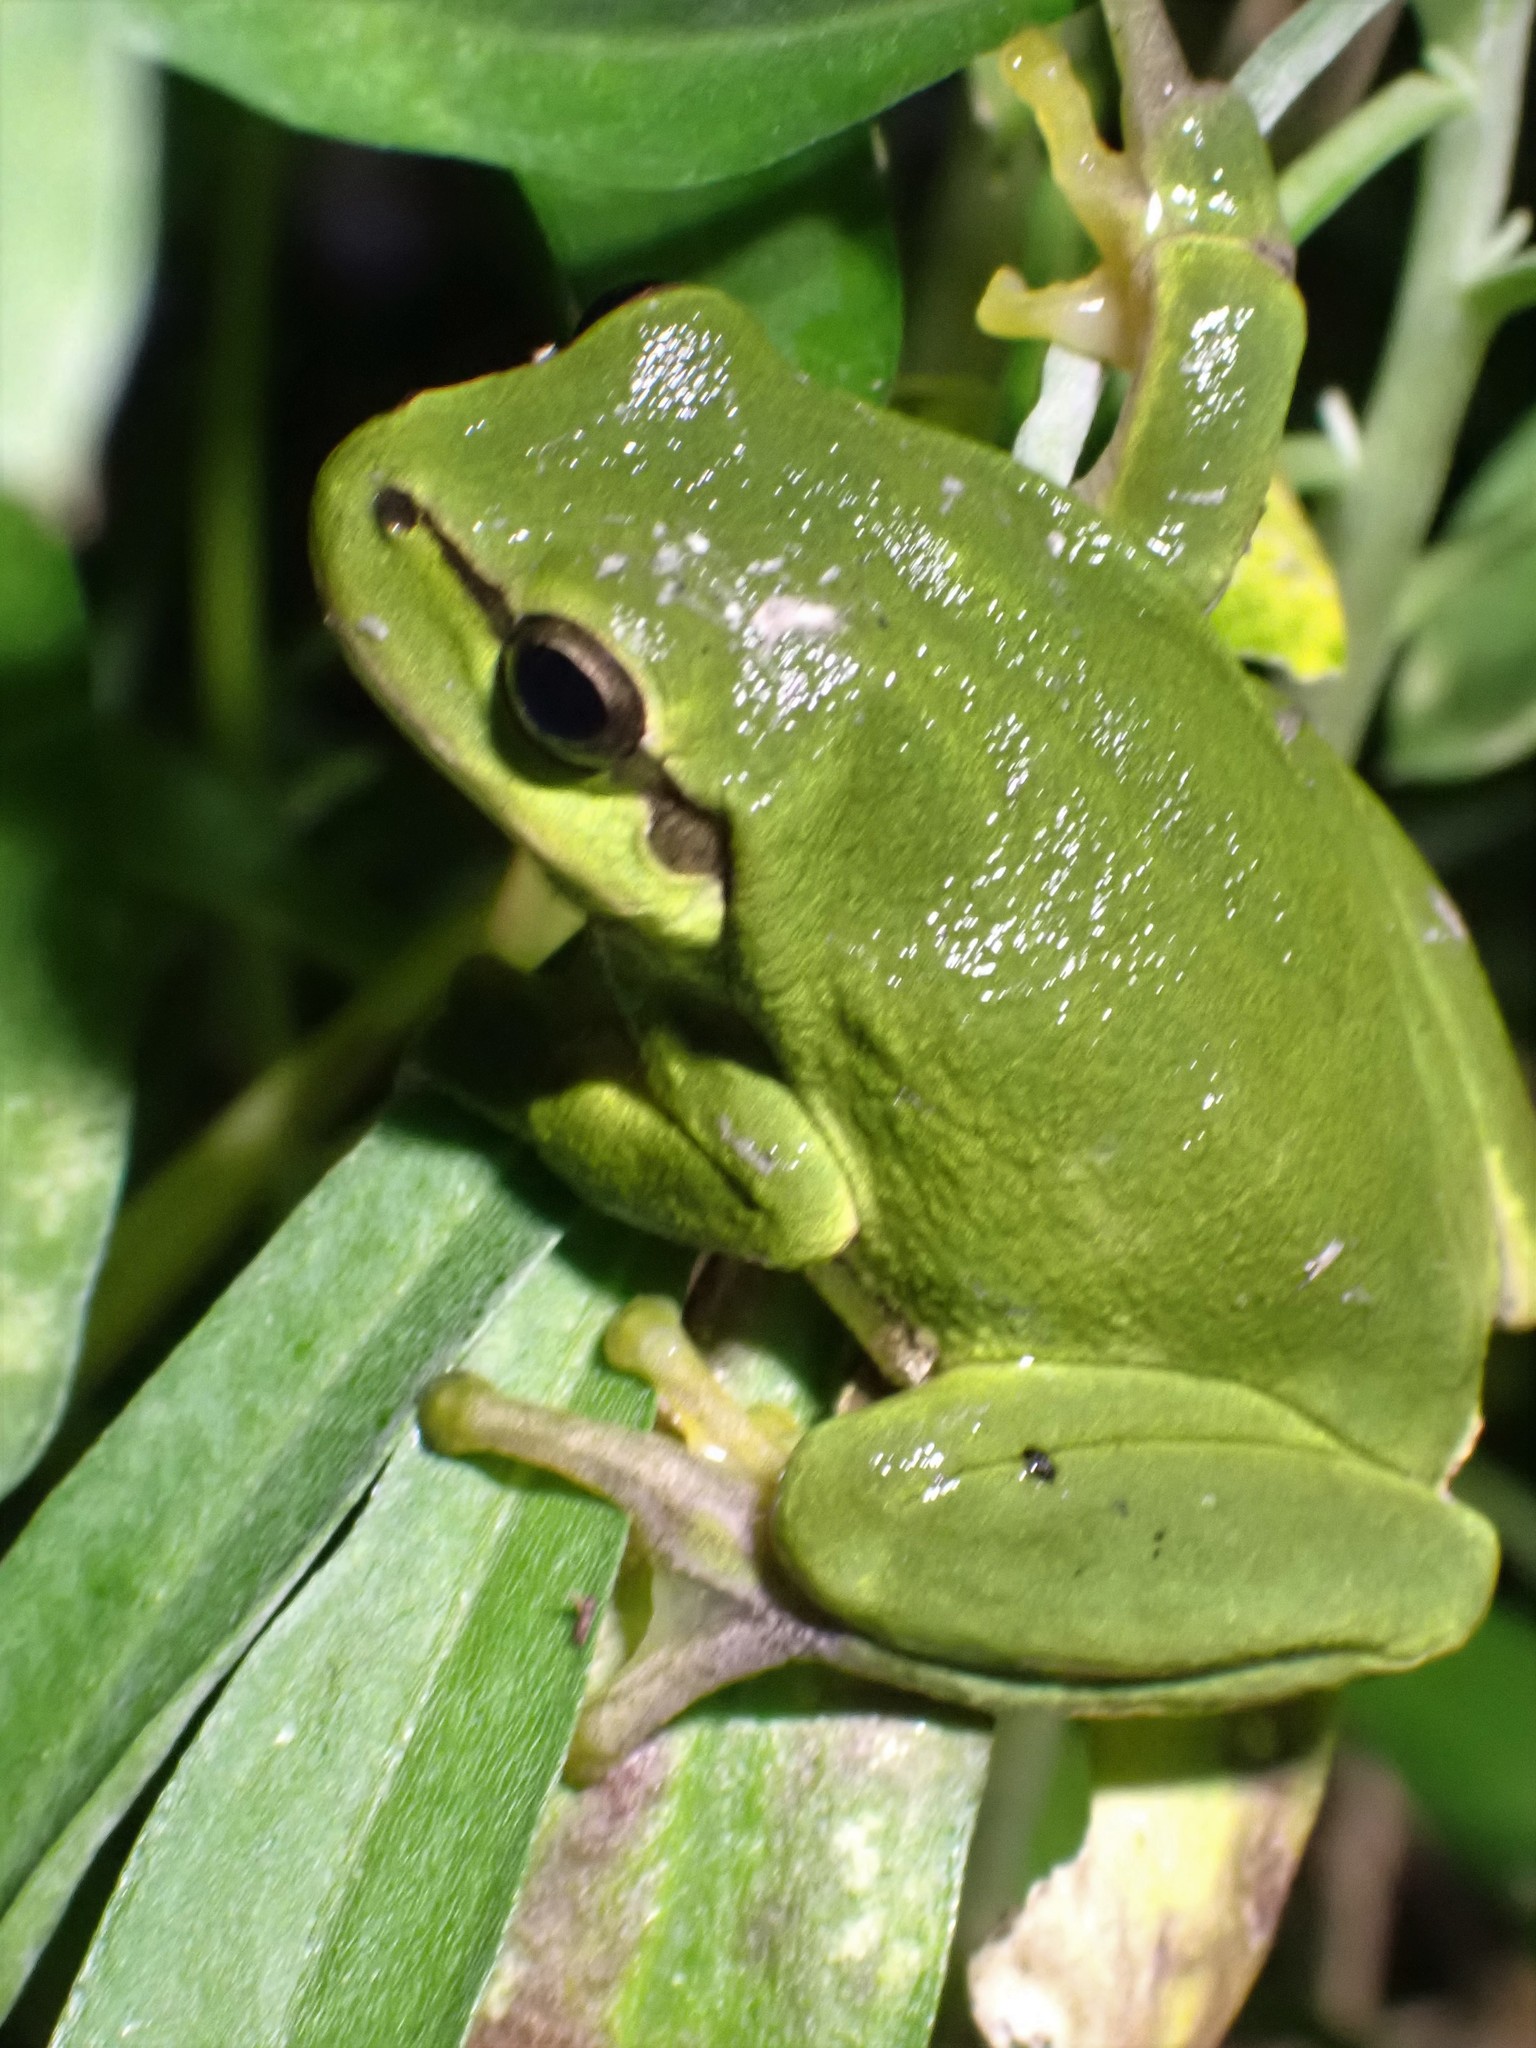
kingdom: Animalia
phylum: Chordata
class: Amphibia
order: Anura
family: Hylidae
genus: Hyla
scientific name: Hyla arborea
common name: Common tree frog
